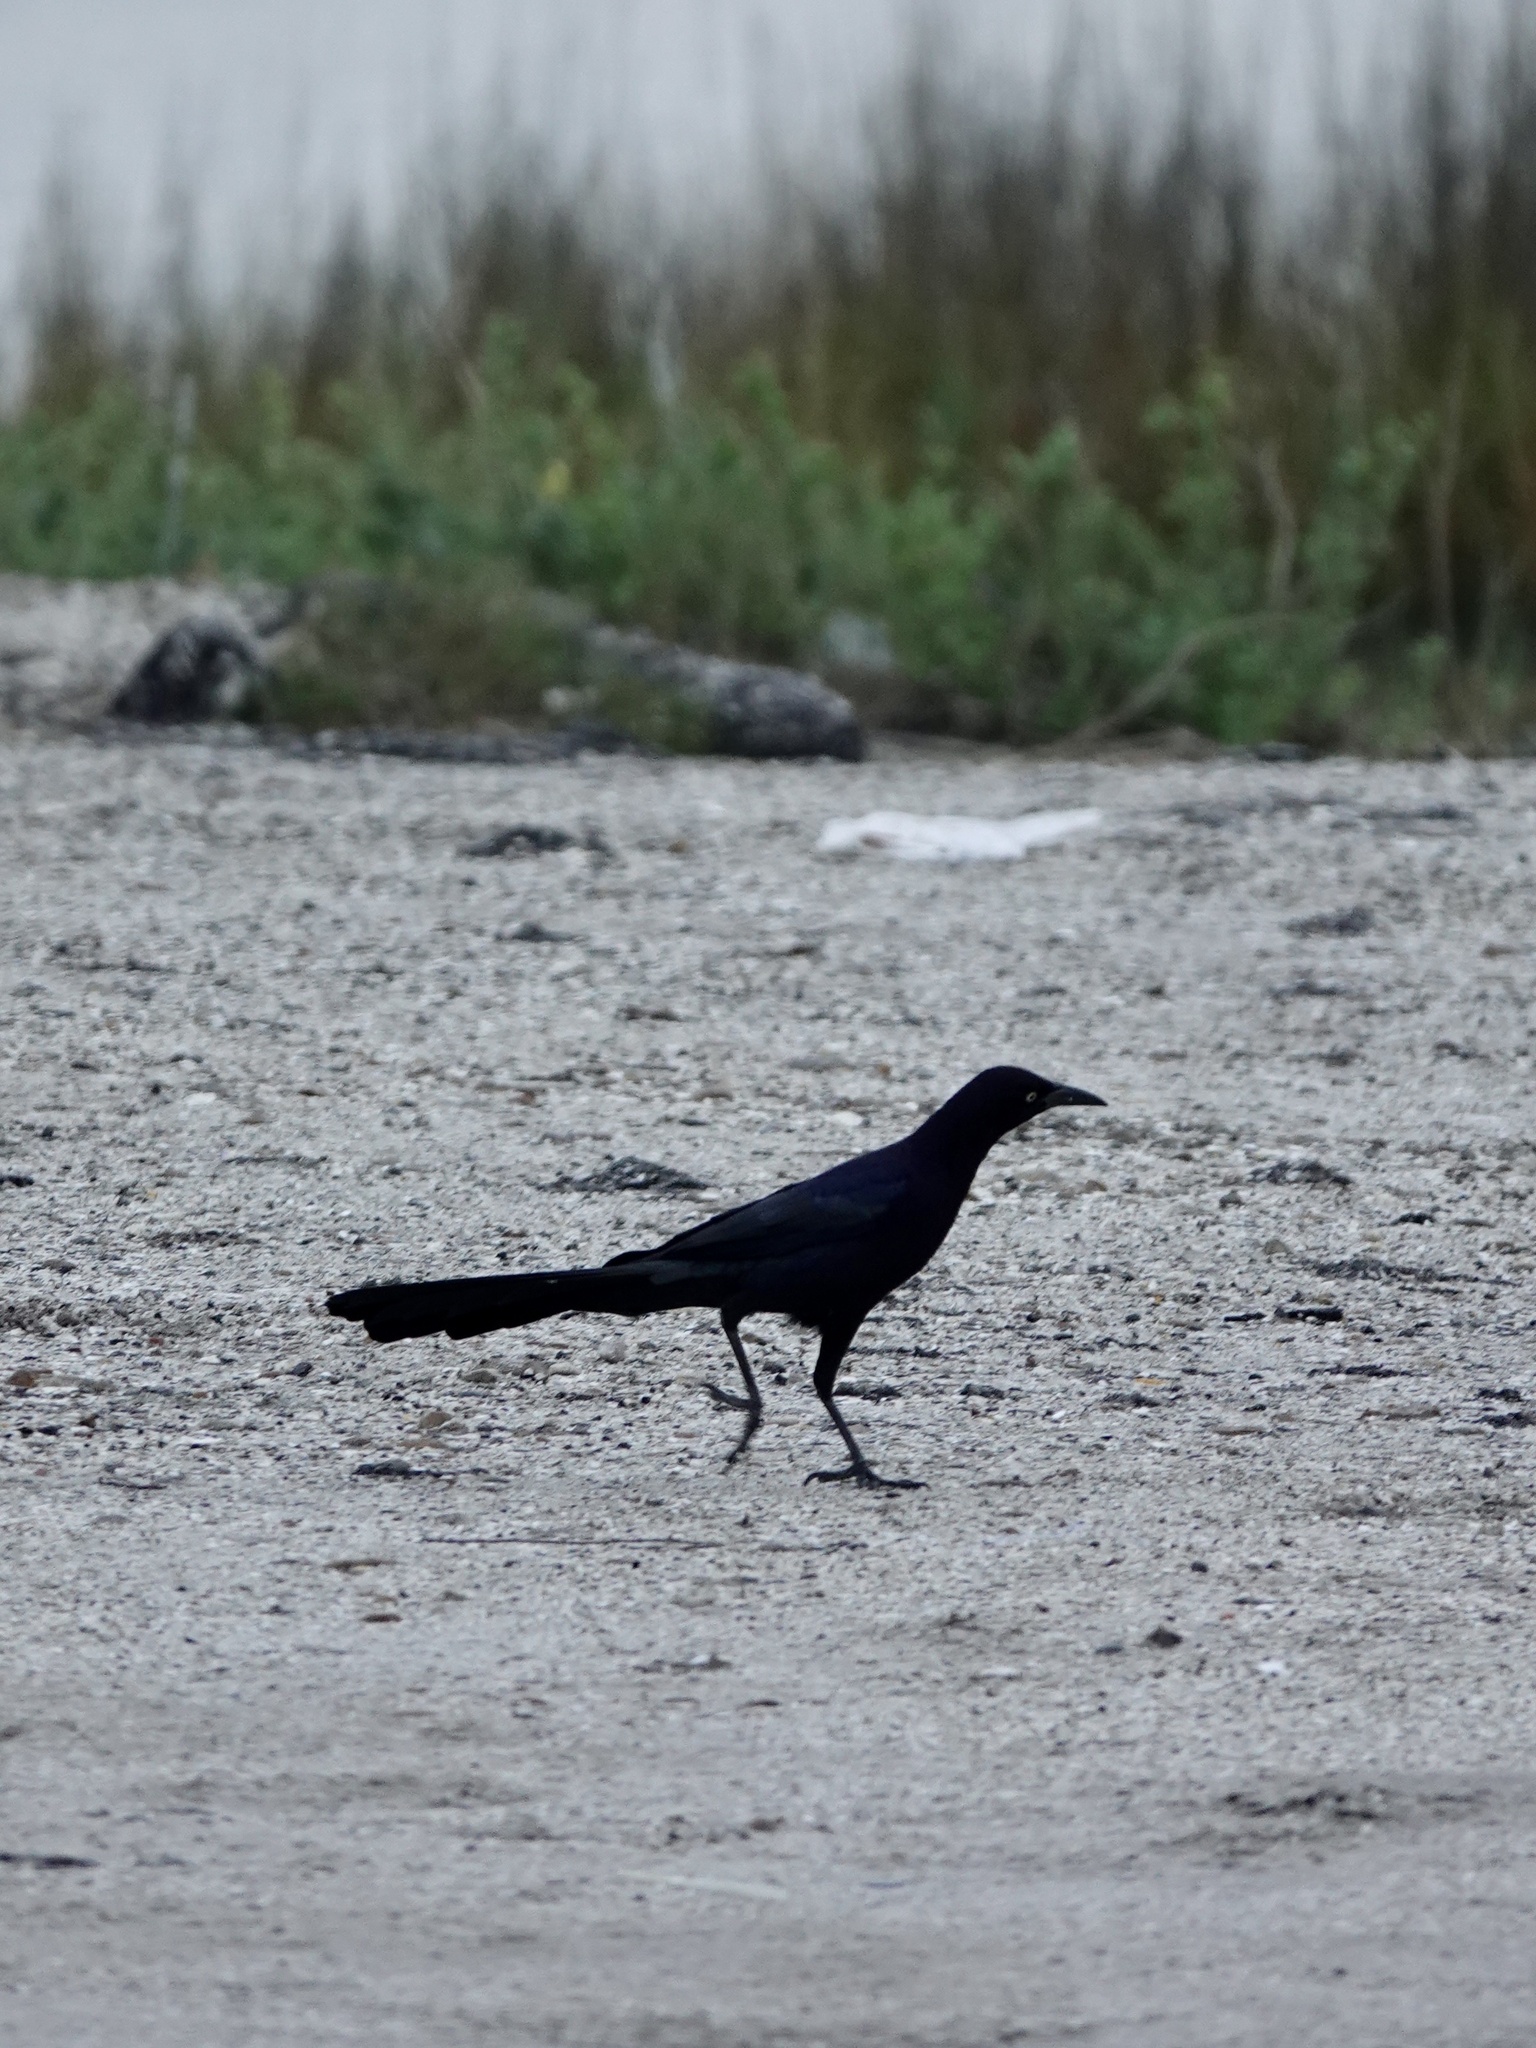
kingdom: Animalia
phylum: Chordata
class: Aves
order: Passeriformes
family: Icteridae
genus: Quiscalus
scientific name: Quiscalus mexicanus
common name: Great-tailed grackle
